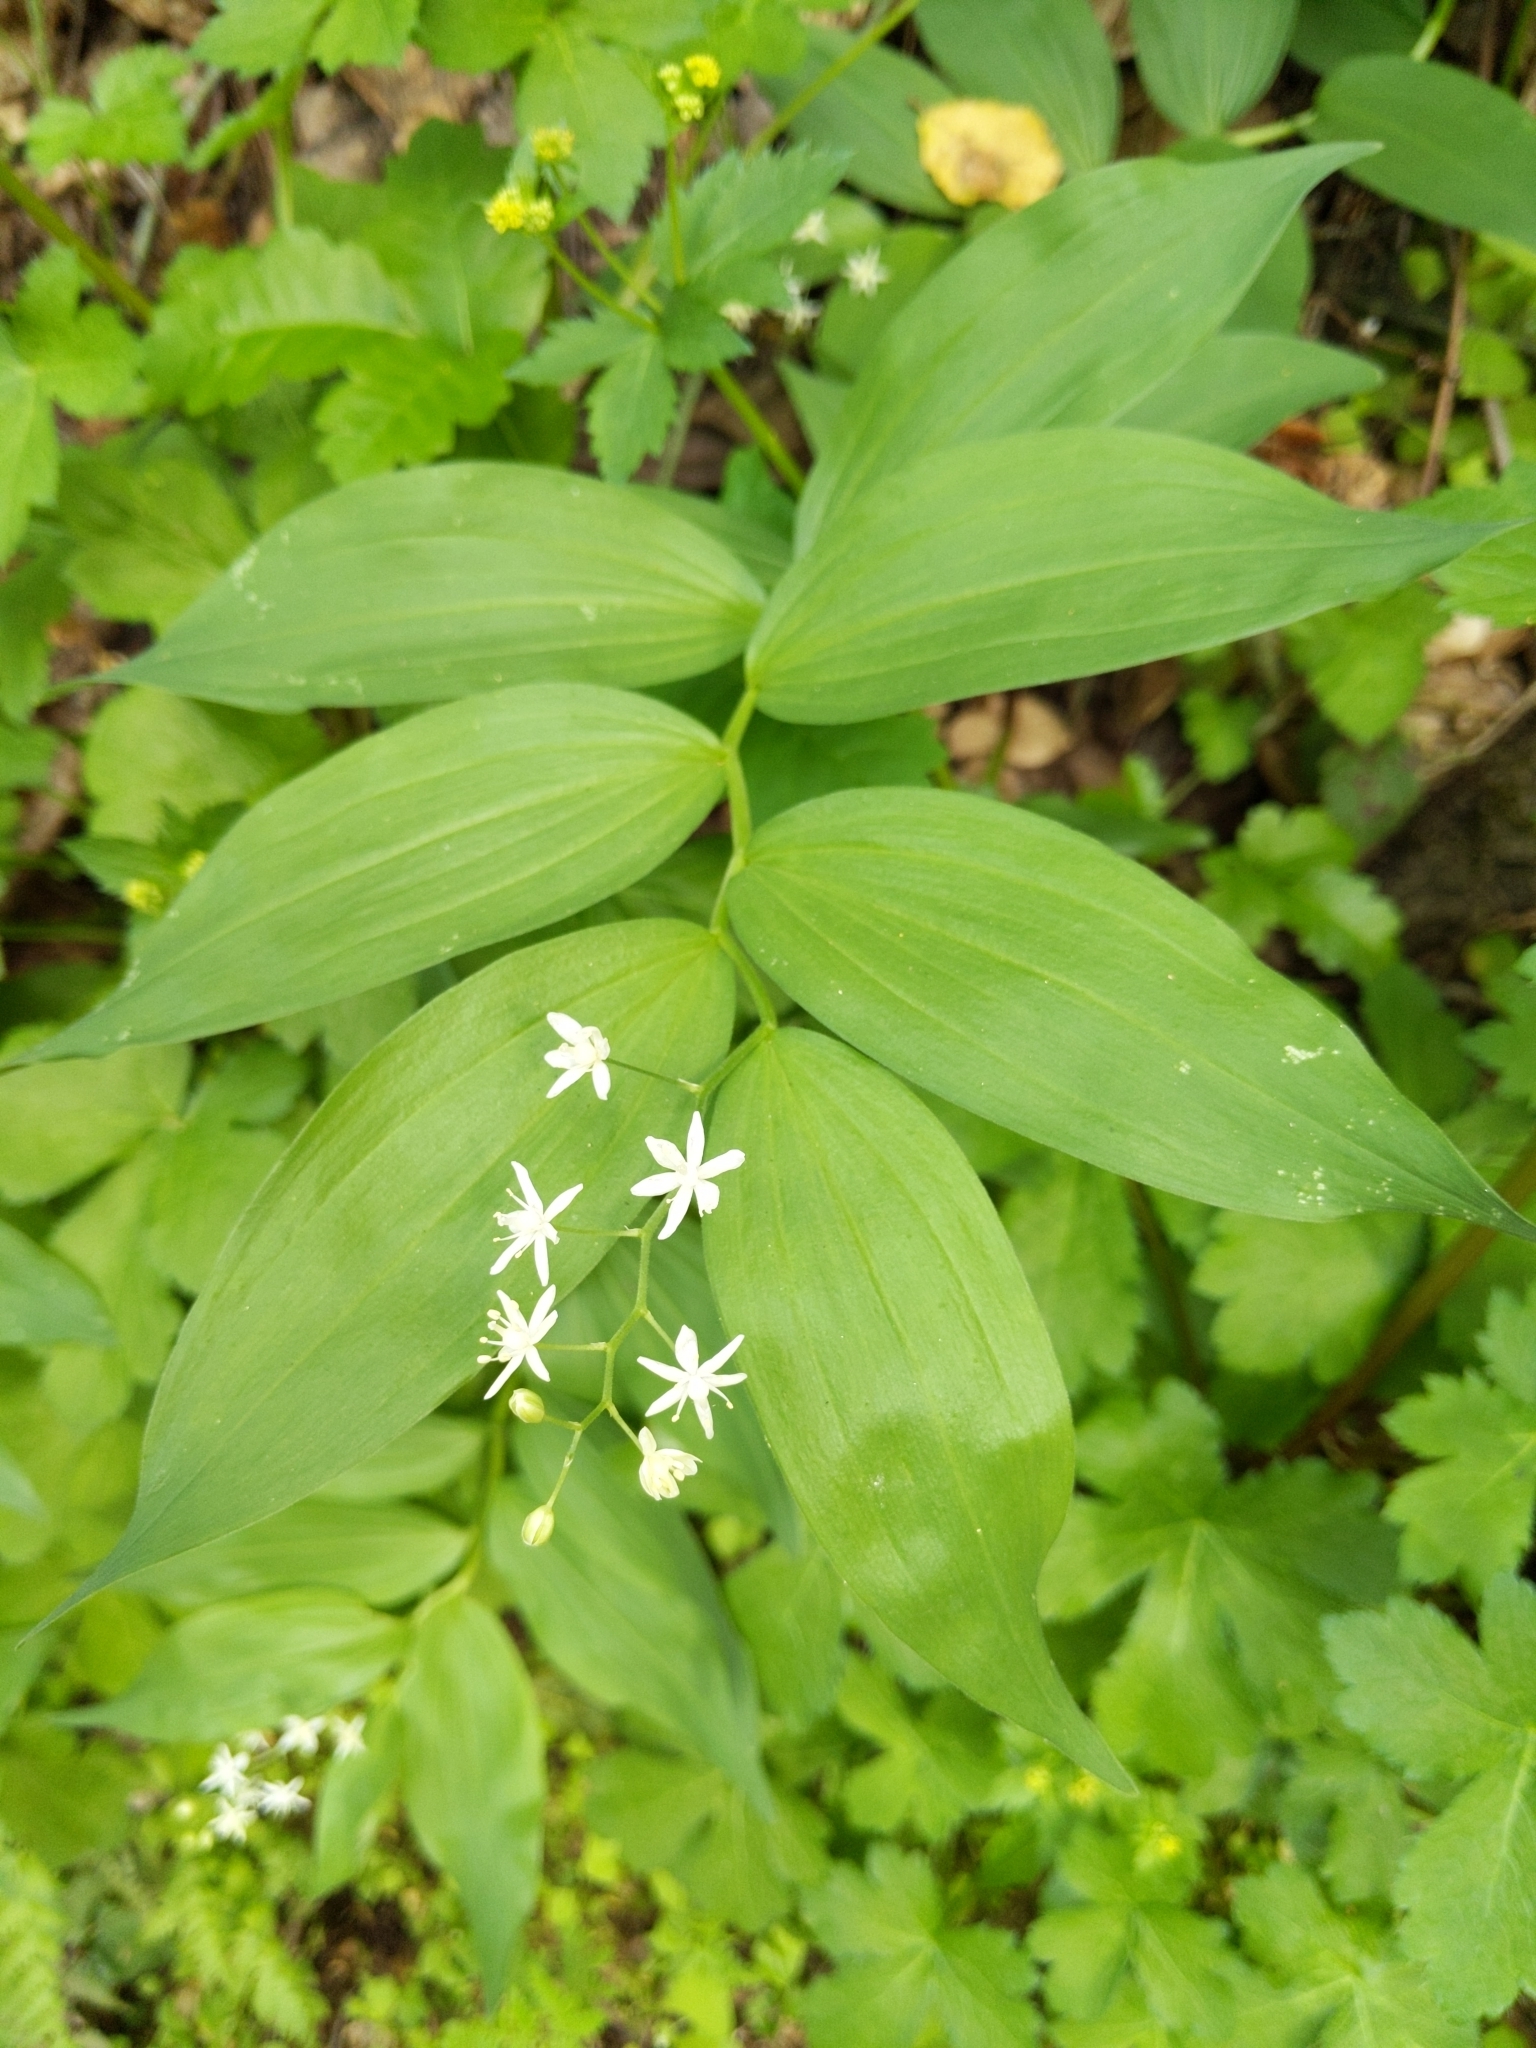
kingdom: Plantae
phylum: Tracheophyta
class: Liliopsida
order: Asparagales
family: Asparagaceae
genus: Maianthemum
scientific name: Maianthemum stellatum
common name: Little false solomon's seal
